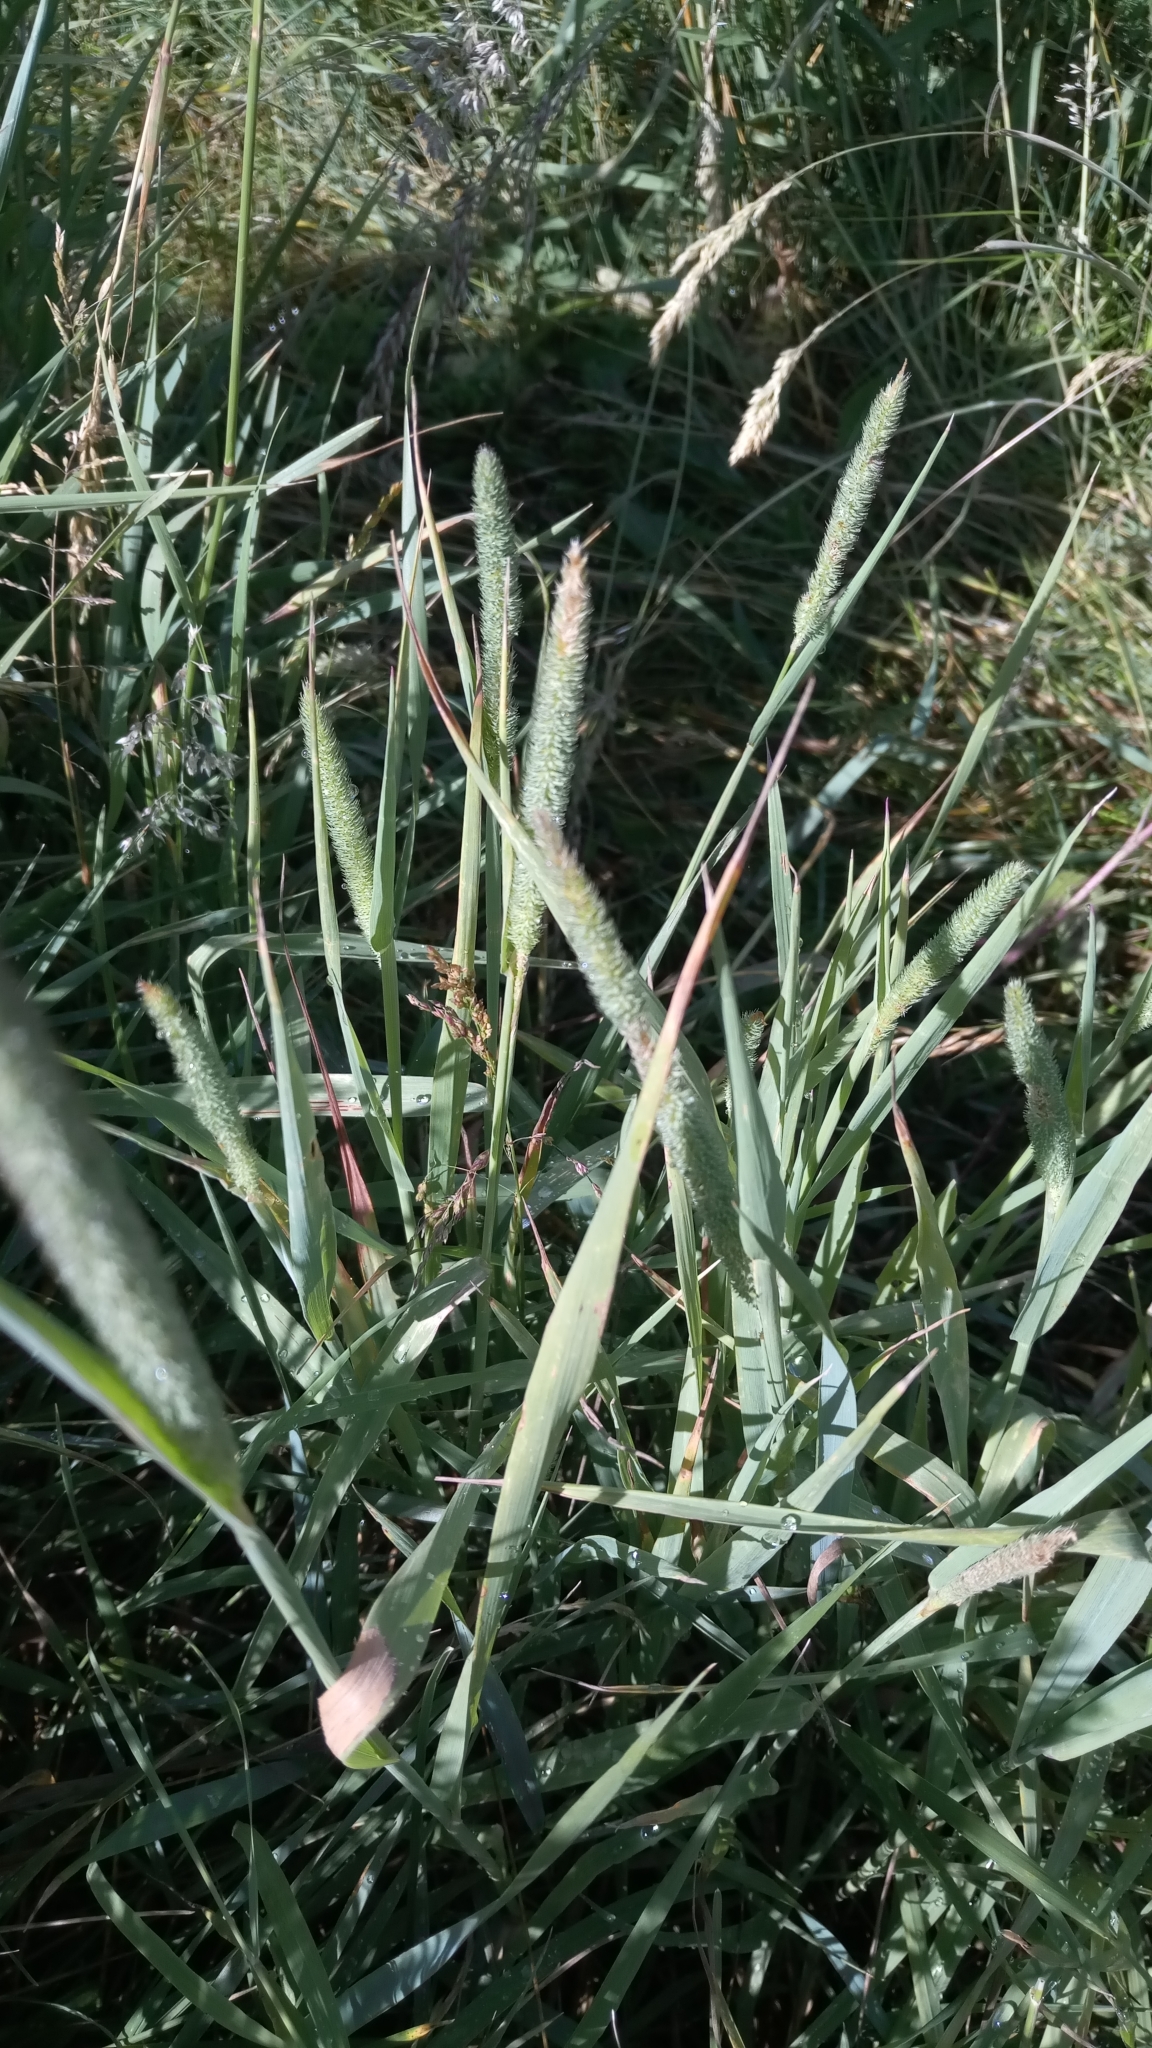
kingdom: Plantae
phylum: Tracheophyta
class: Liliopsida
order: Poales
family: Poaceae
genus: Phleum
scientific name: Phleum pratense
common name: Timothy grass
